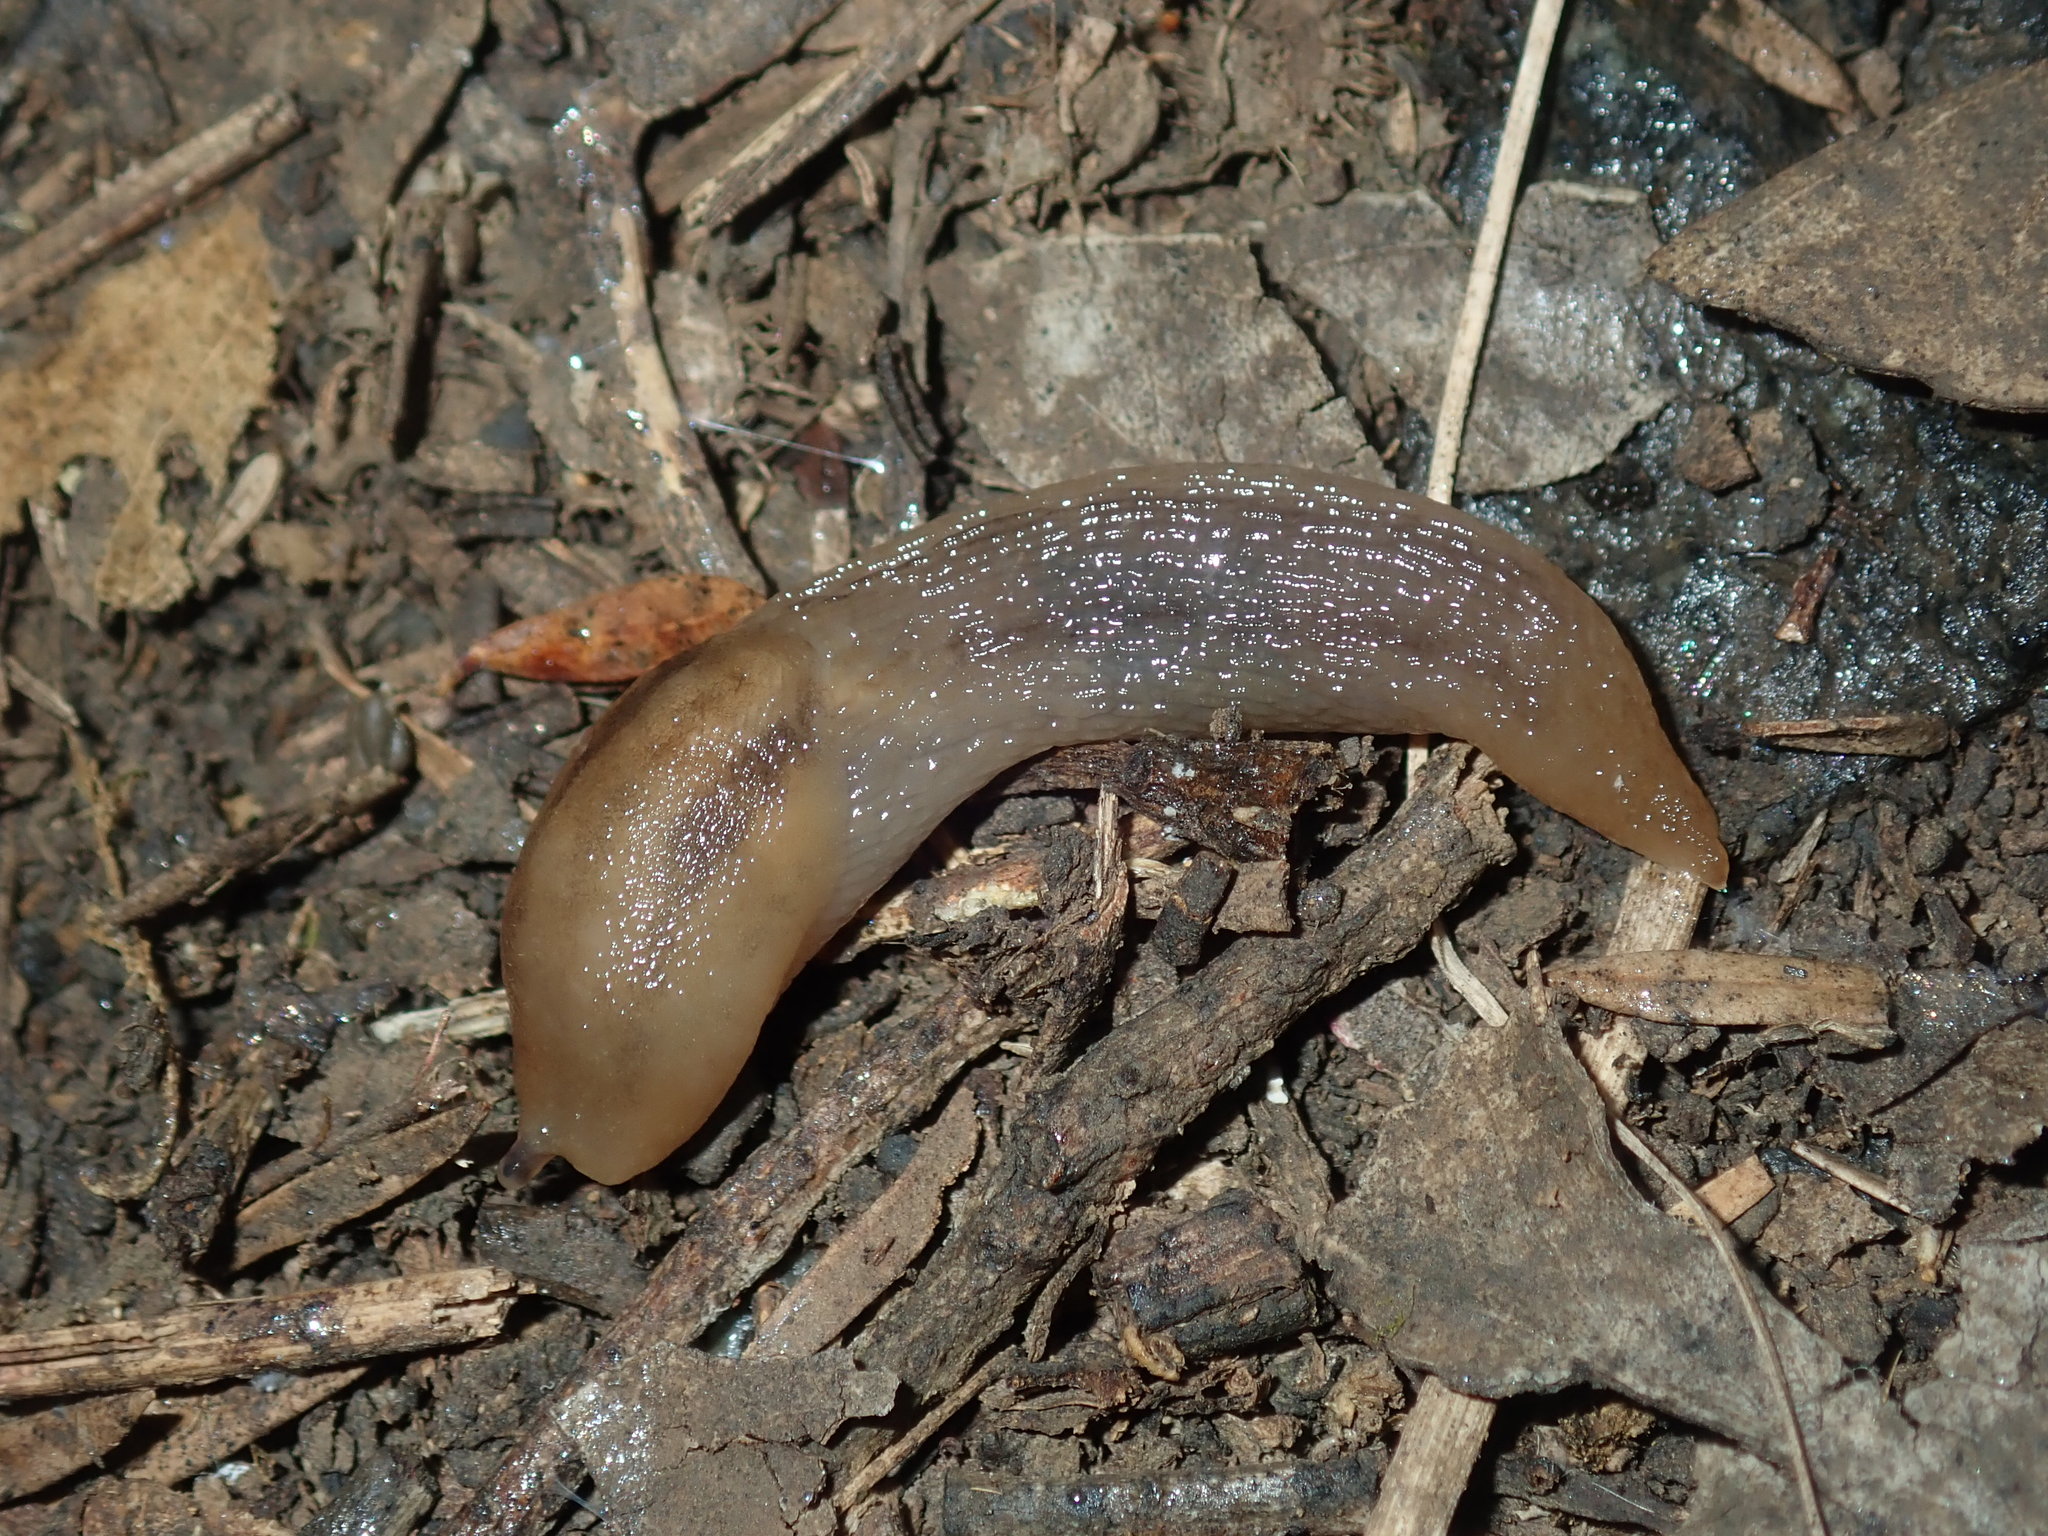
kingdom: Animalia
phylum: Mollusca
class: Gastropoda
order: Stylommatophora
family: Limacidae
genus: Ambigolimax
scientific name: Ambigolimax
